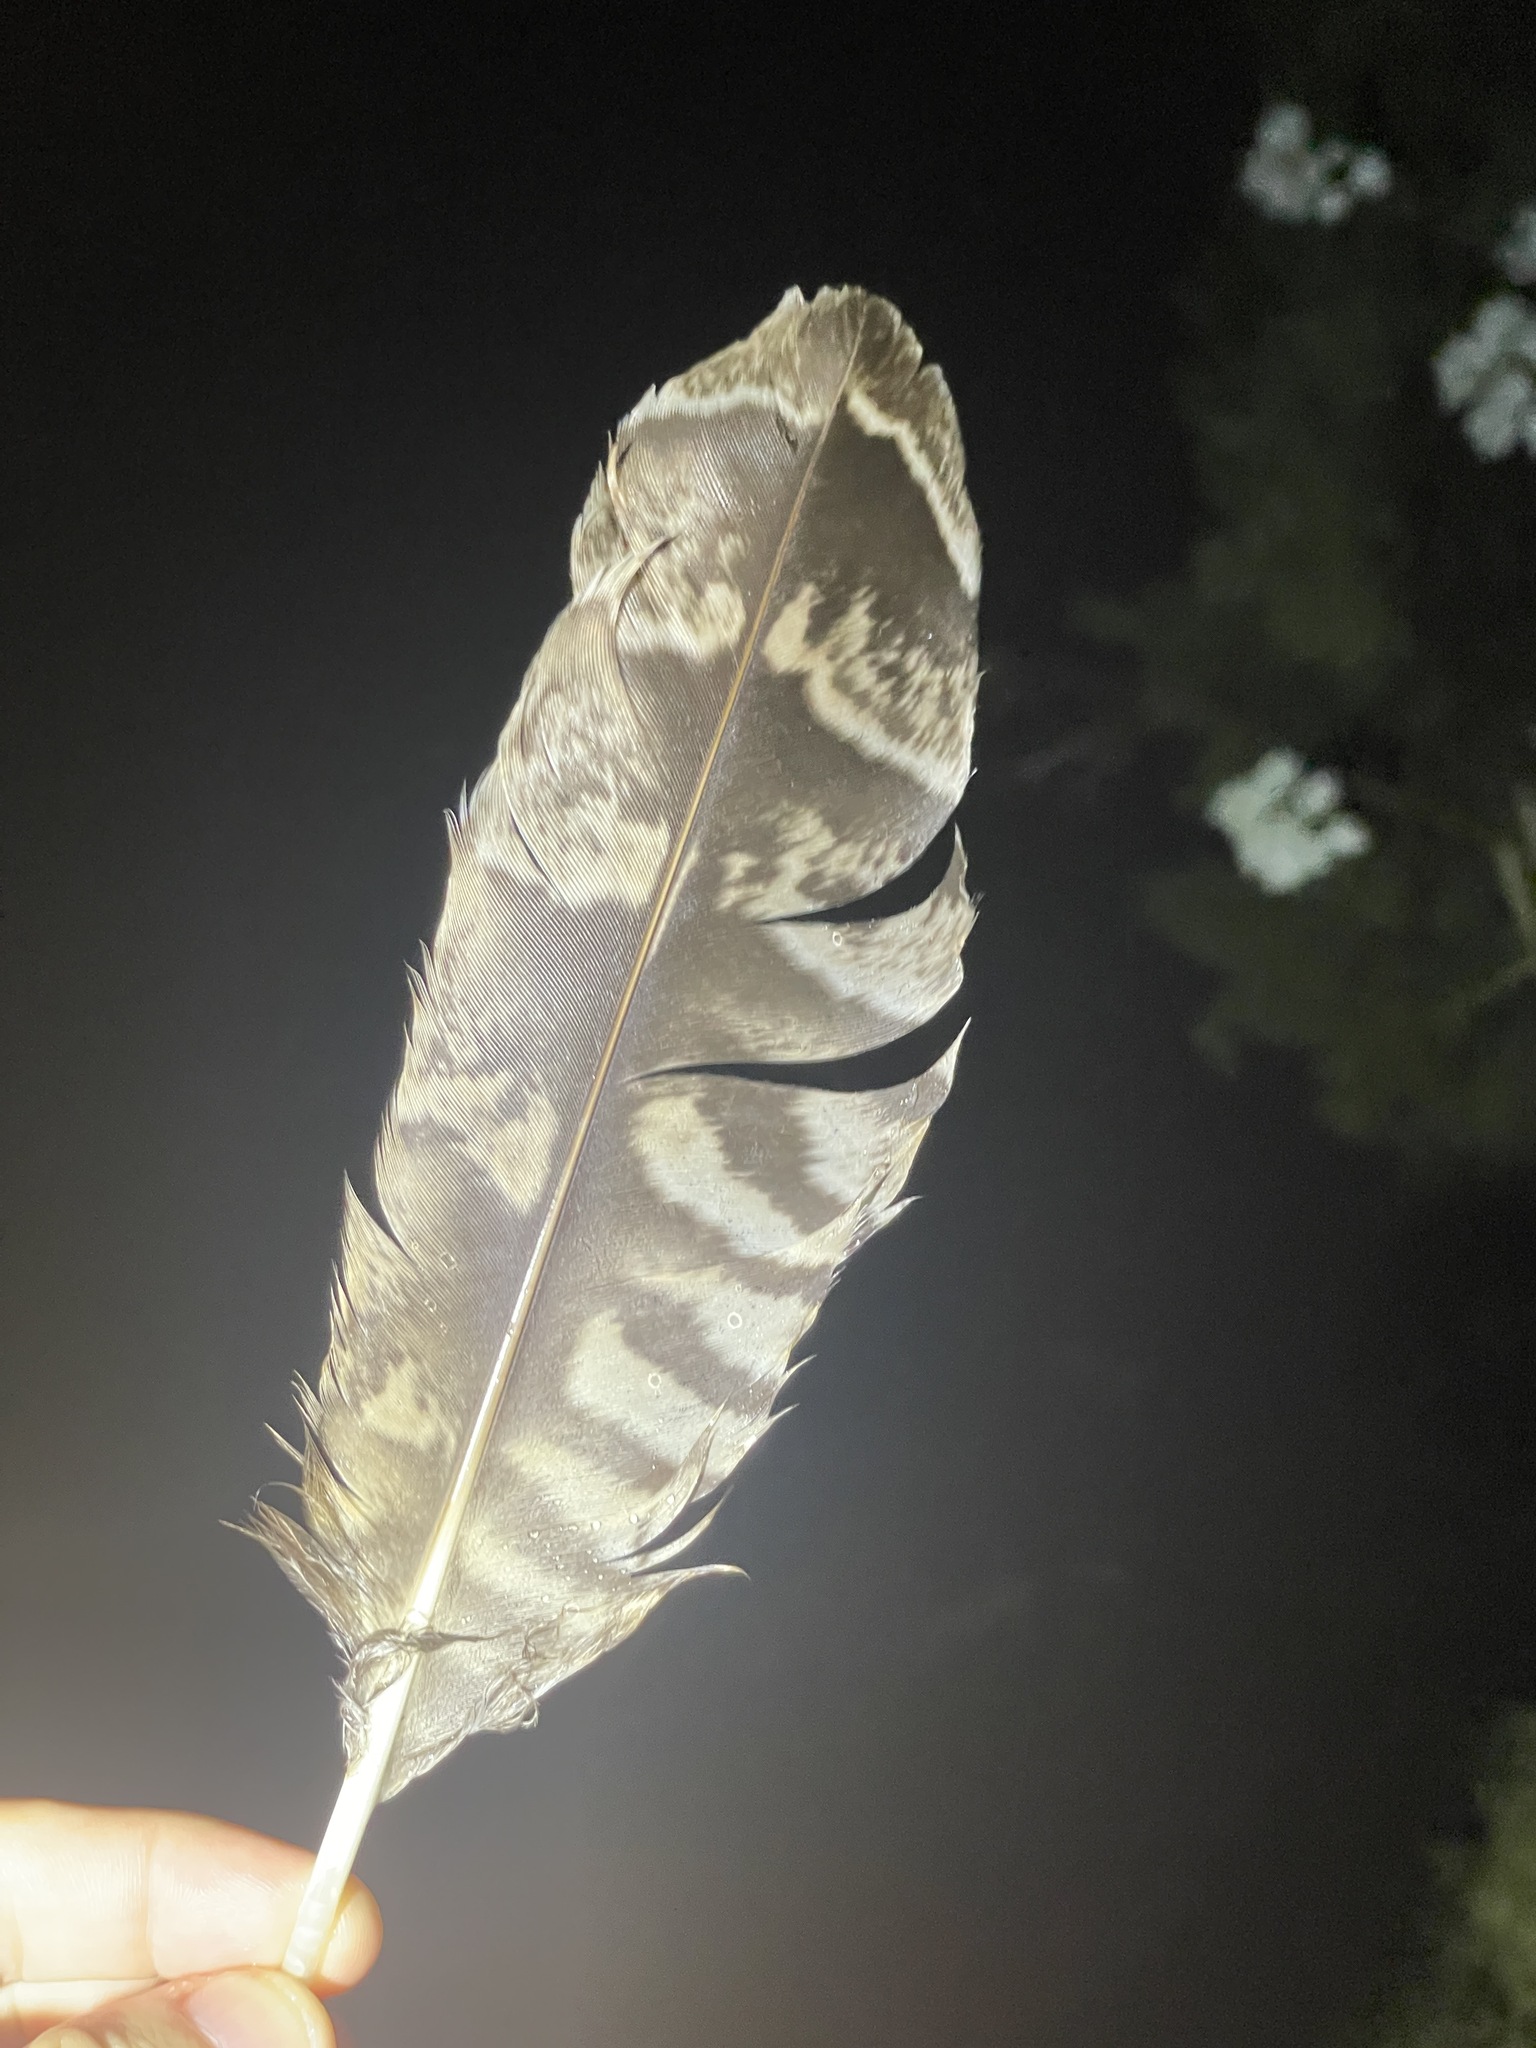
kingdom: Animalia
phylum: Chordata
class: Aves
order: Strigiformes
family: Strigidae
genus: Ketupa
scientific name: Ketupa zeylonensis
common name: Brown fish owl
